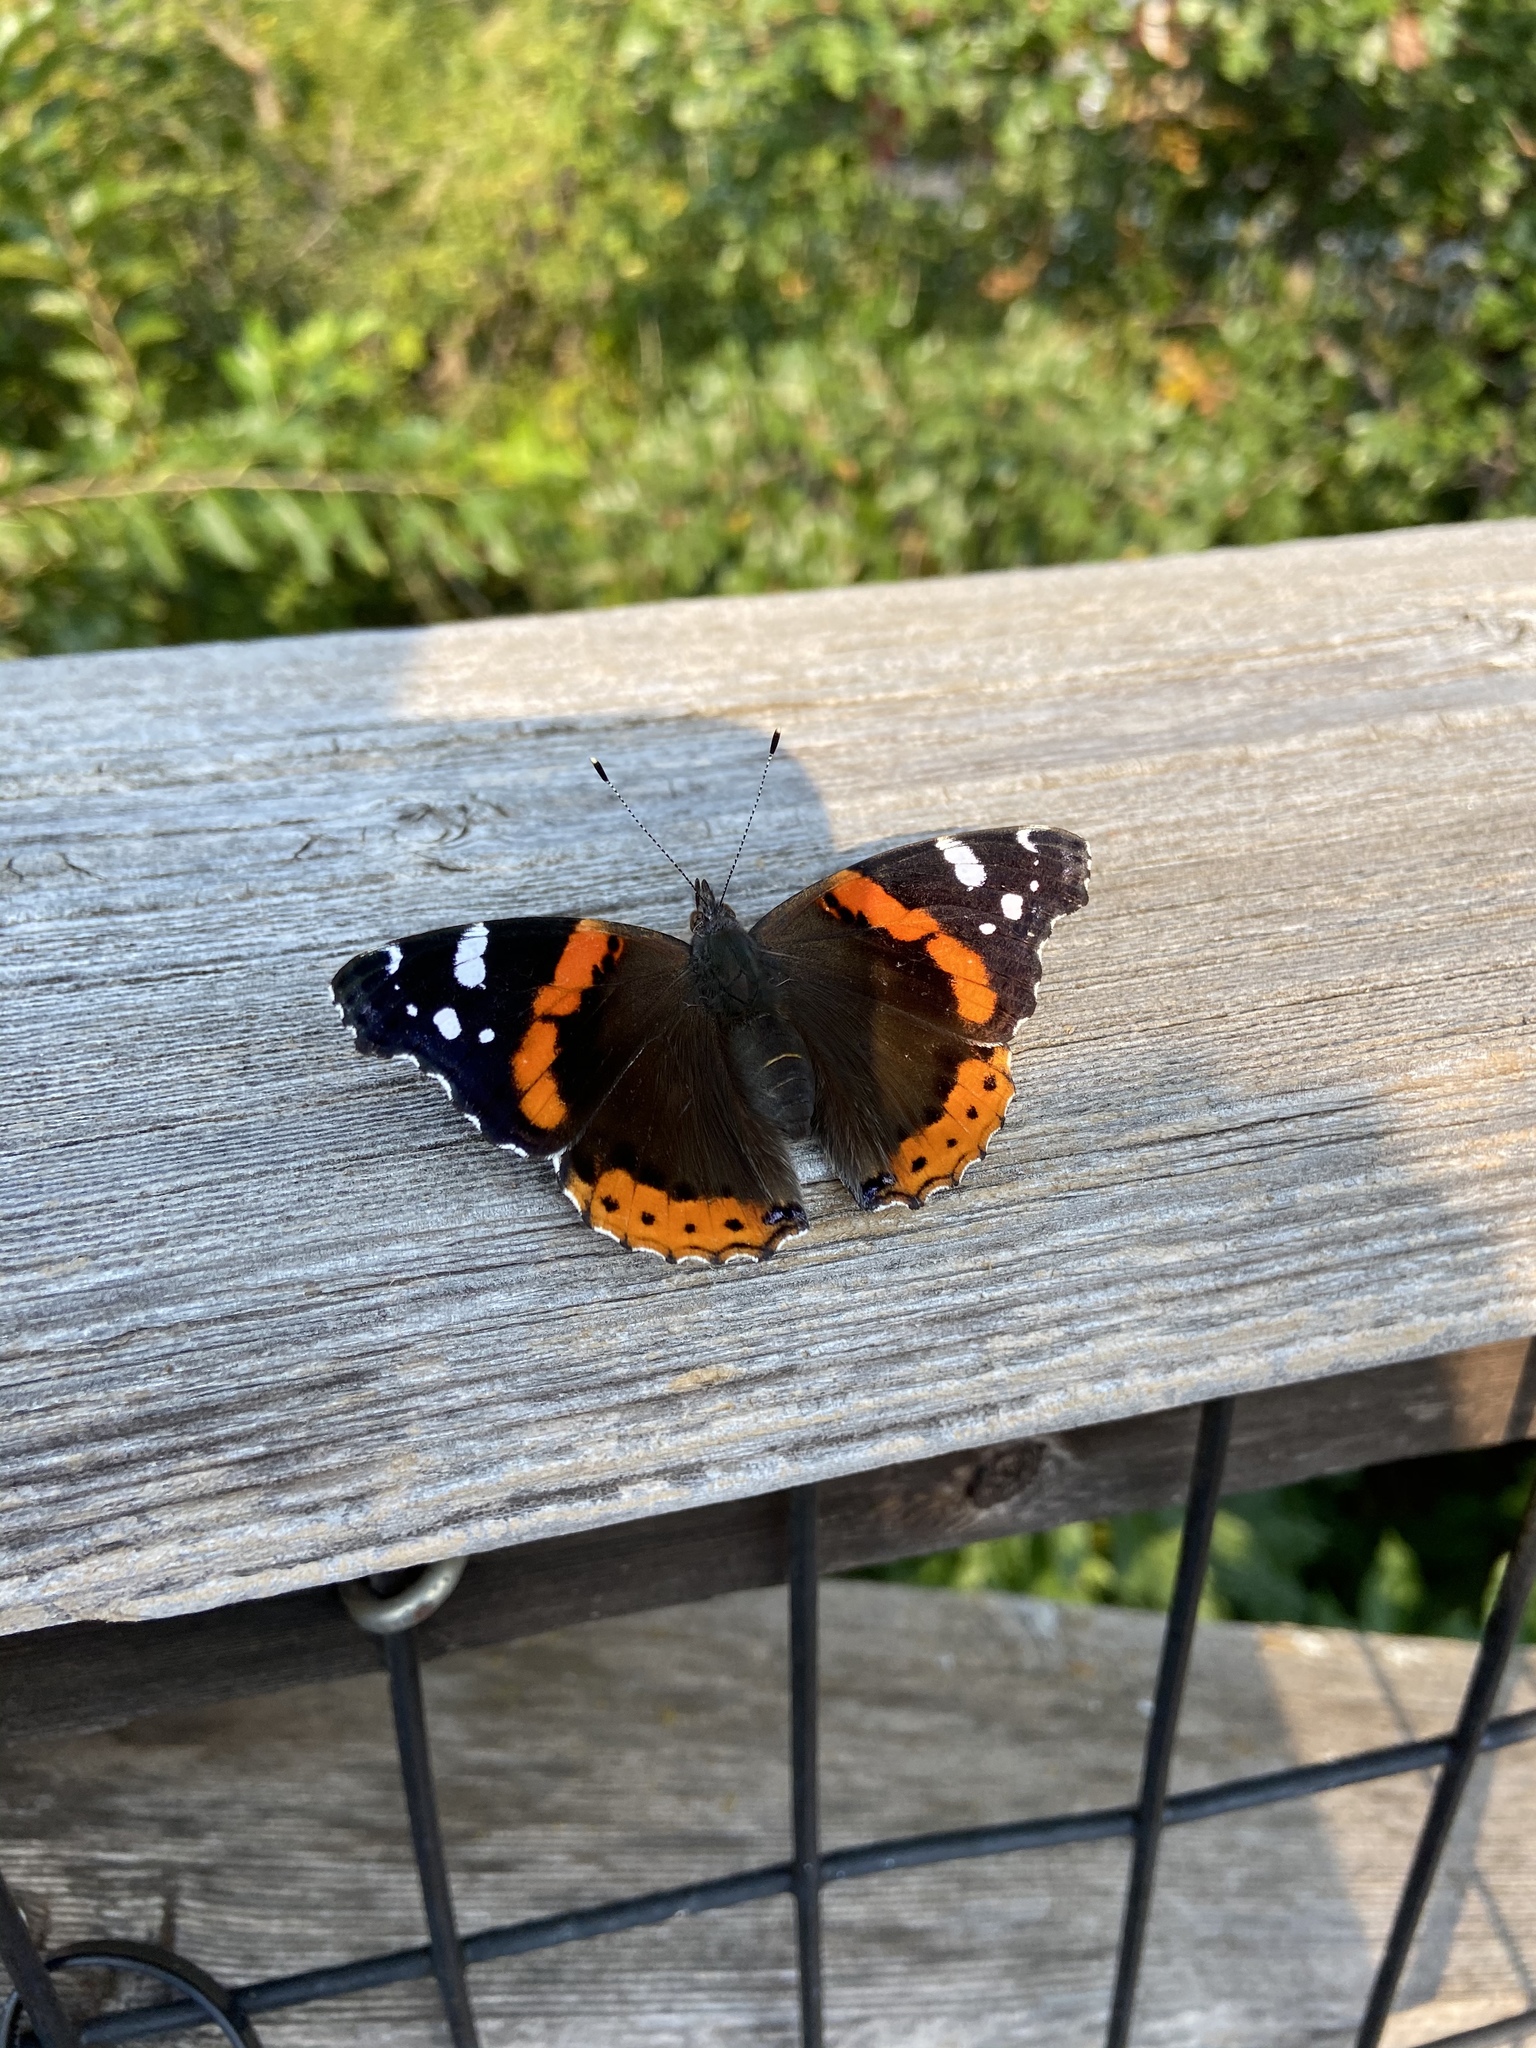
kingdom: Animalia
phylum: Arthropoda
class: Insecta
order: Lepidoptera
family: Nymphalidae
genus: Vanessa
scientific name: Vanessa atalanta
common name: Red admiral
